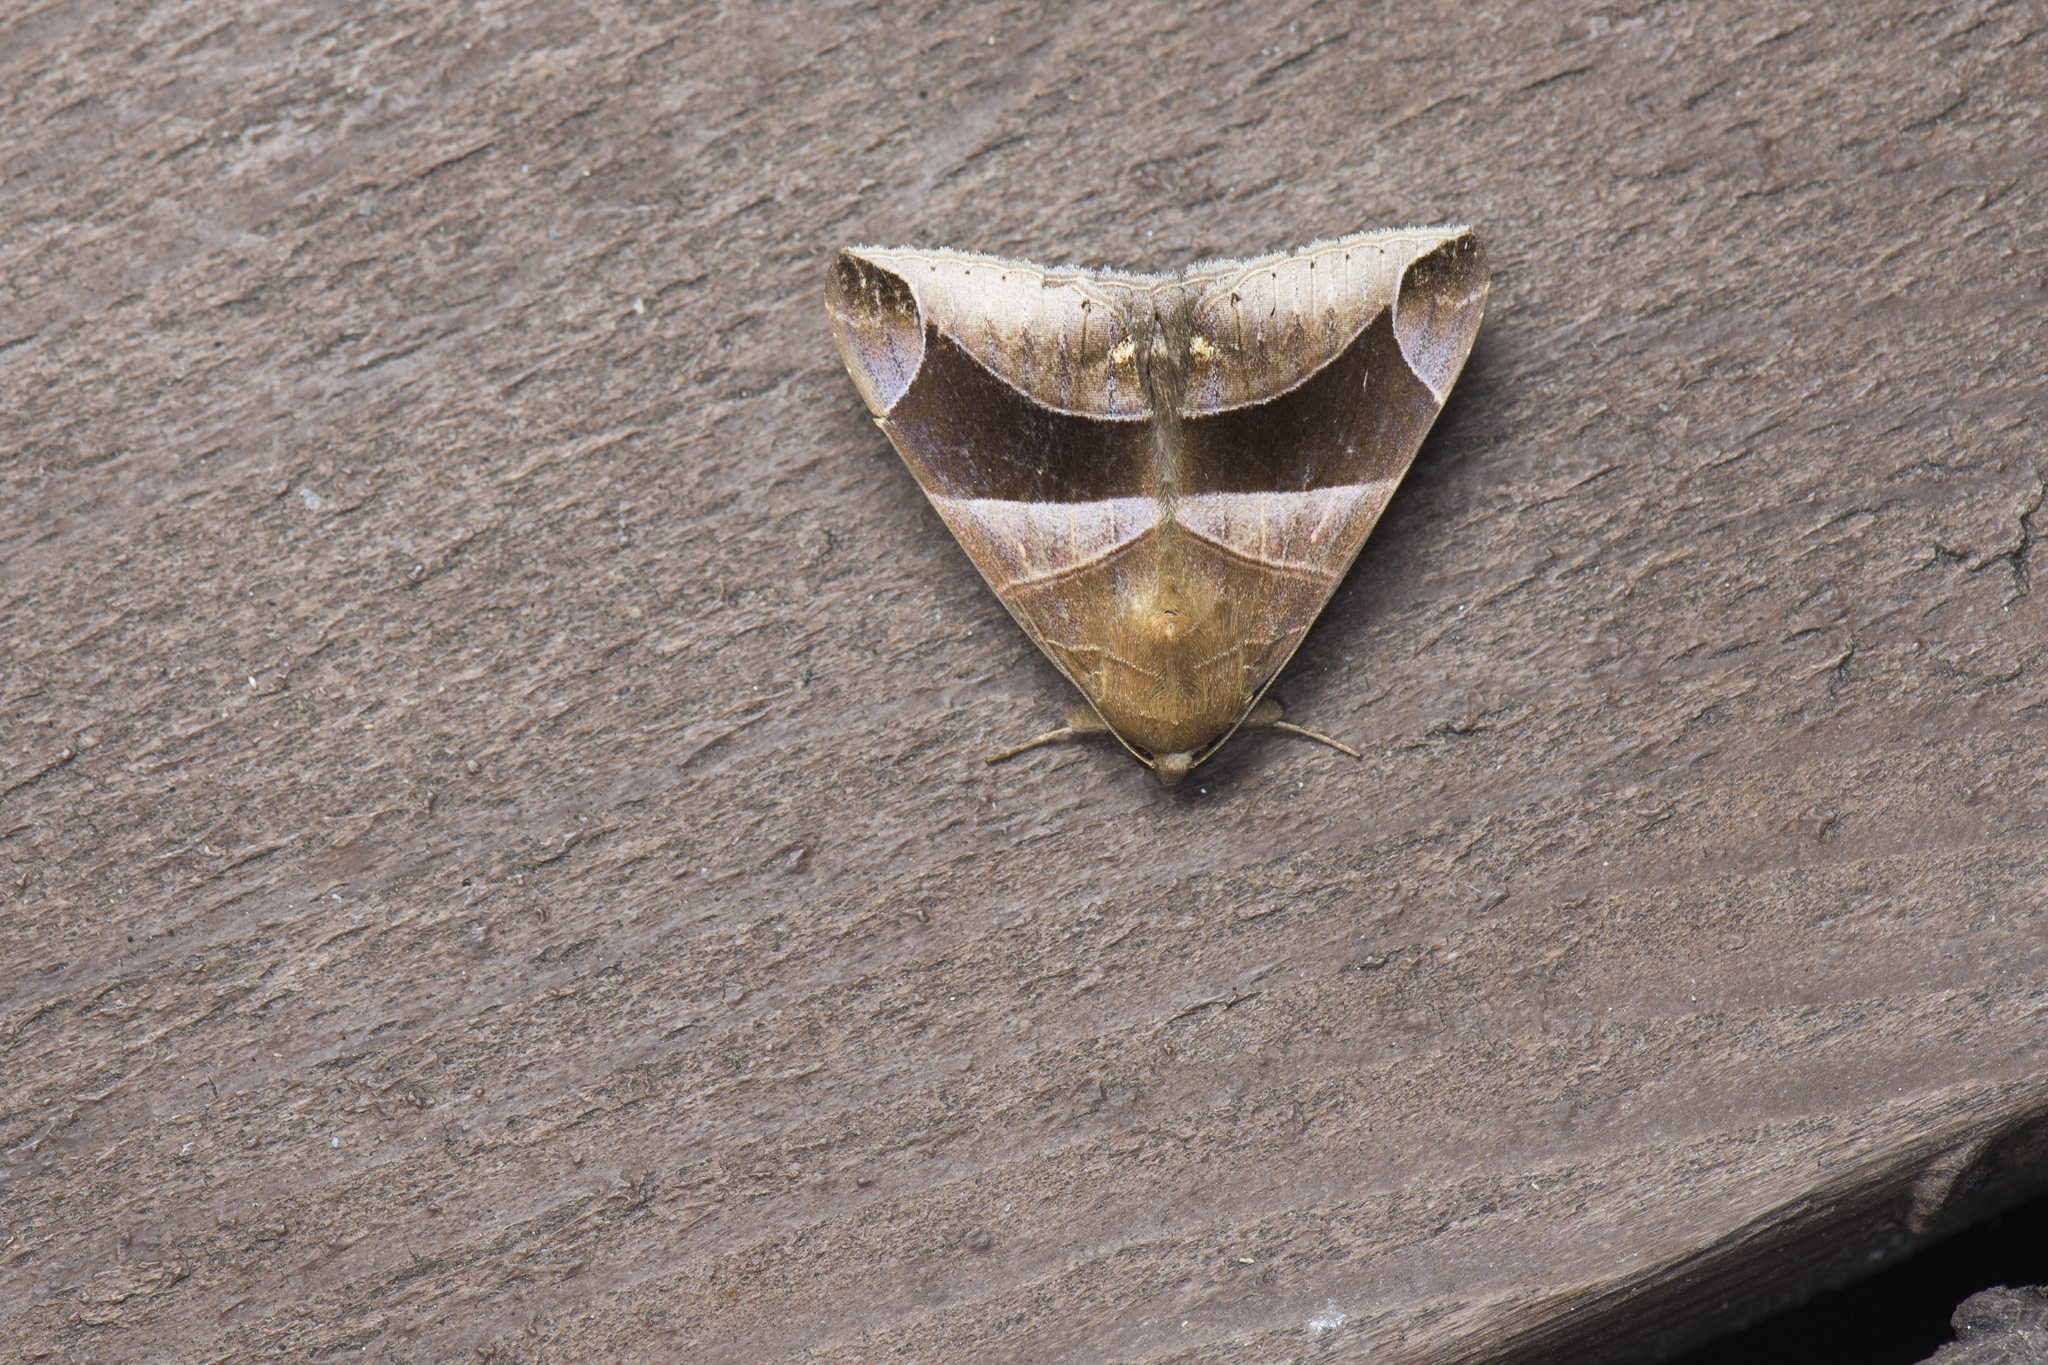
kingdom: Animalia
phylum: Arthropoda
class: Insecta
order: Lepidoptera
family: Erebidae
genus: Bastilla
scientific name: Bastilla acuta
